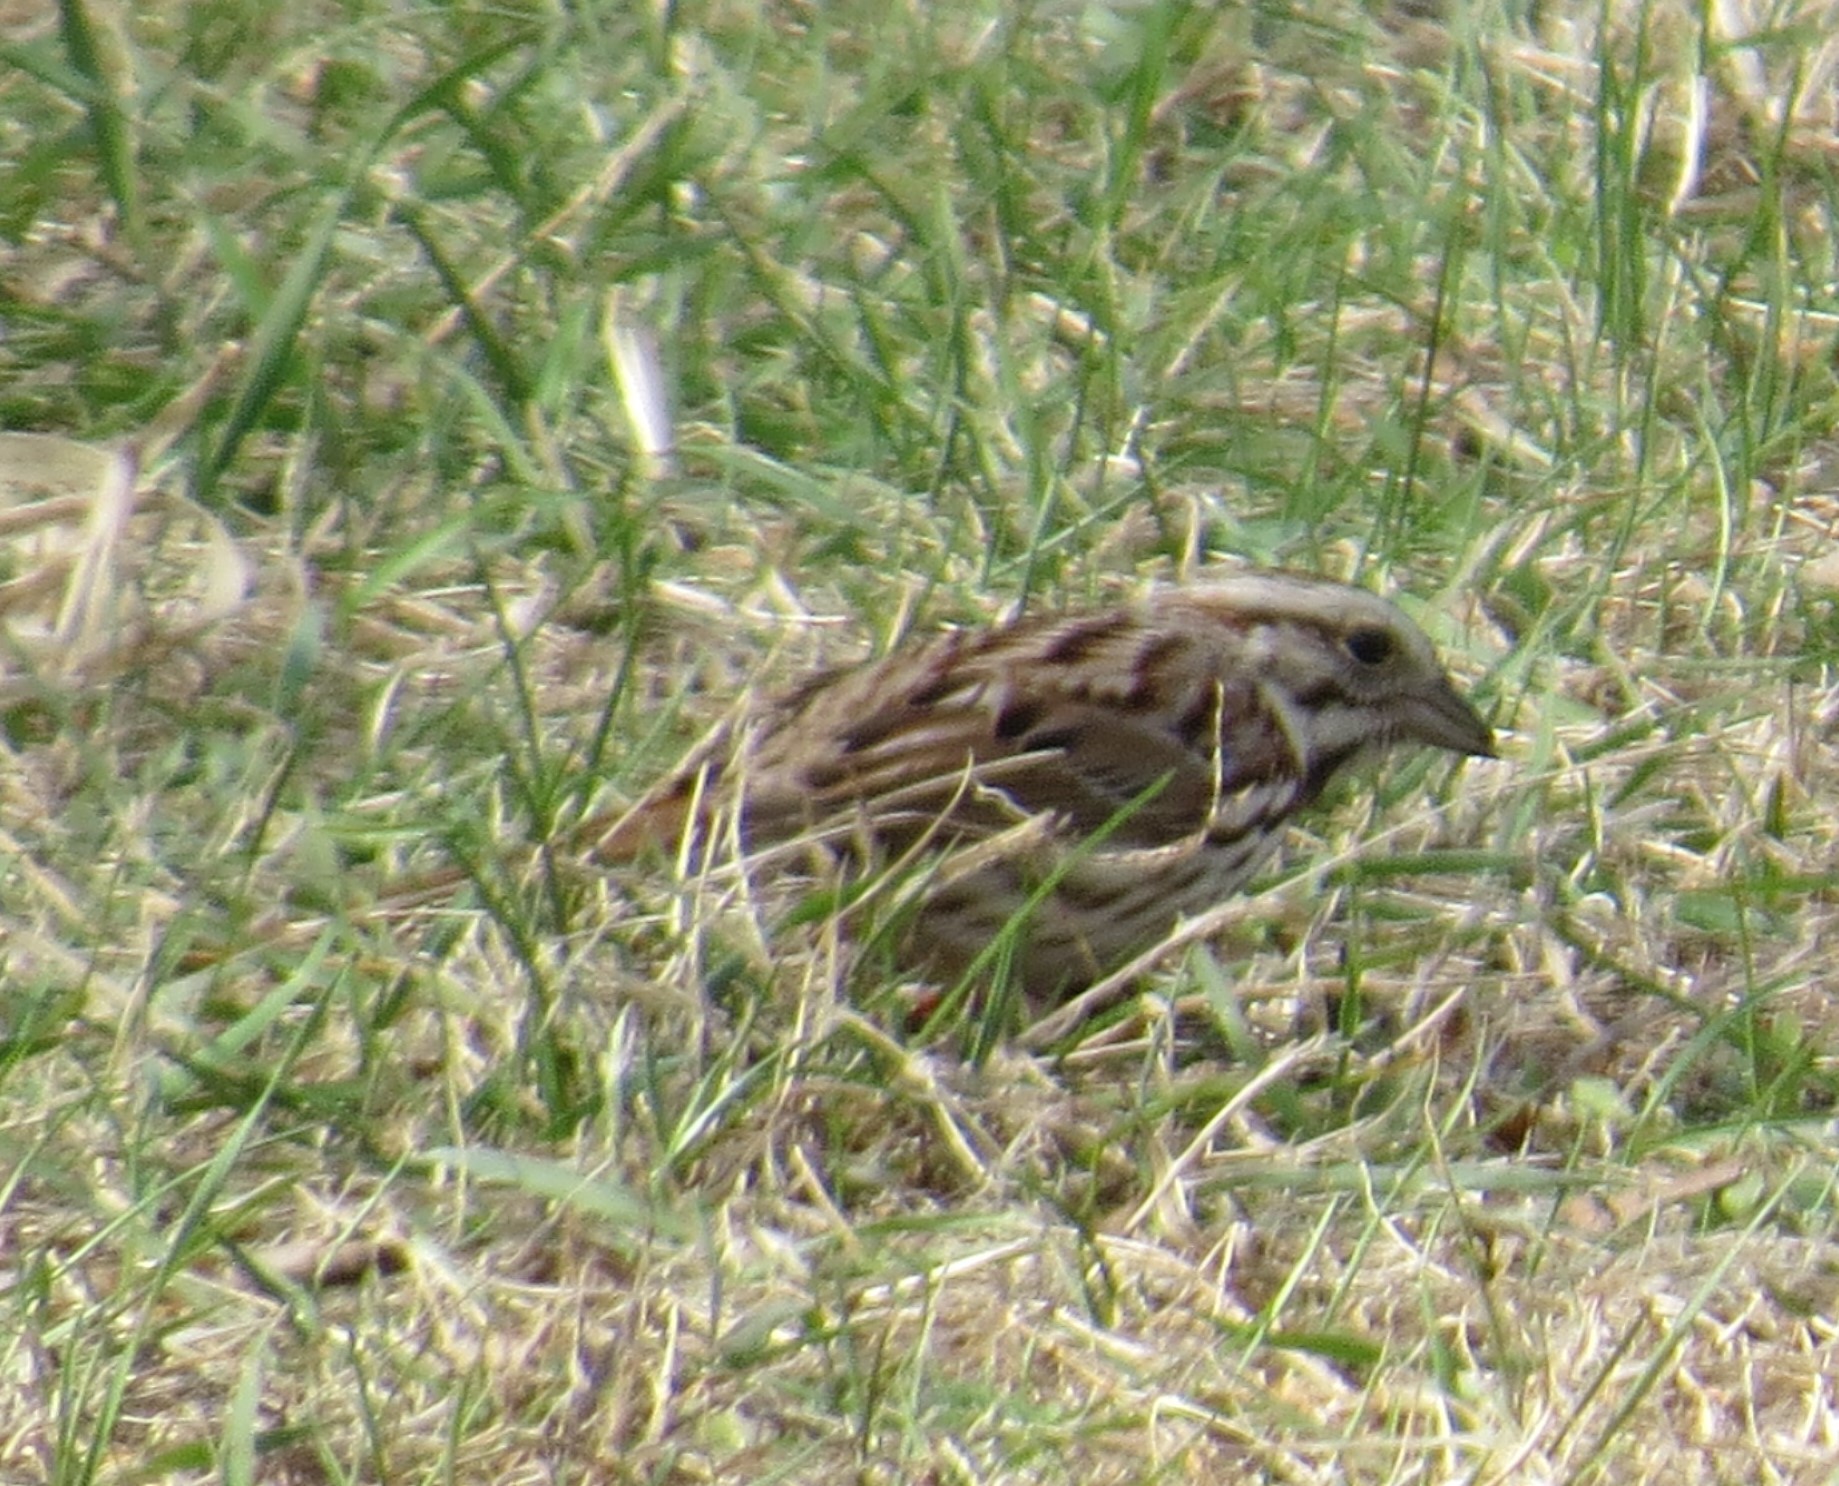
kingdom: Animalia
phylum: Chordata
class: Aves
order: Passeriformes
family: Passerellidae
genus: Melospiza
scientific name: Melospiza melodia
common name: Song sparrow
